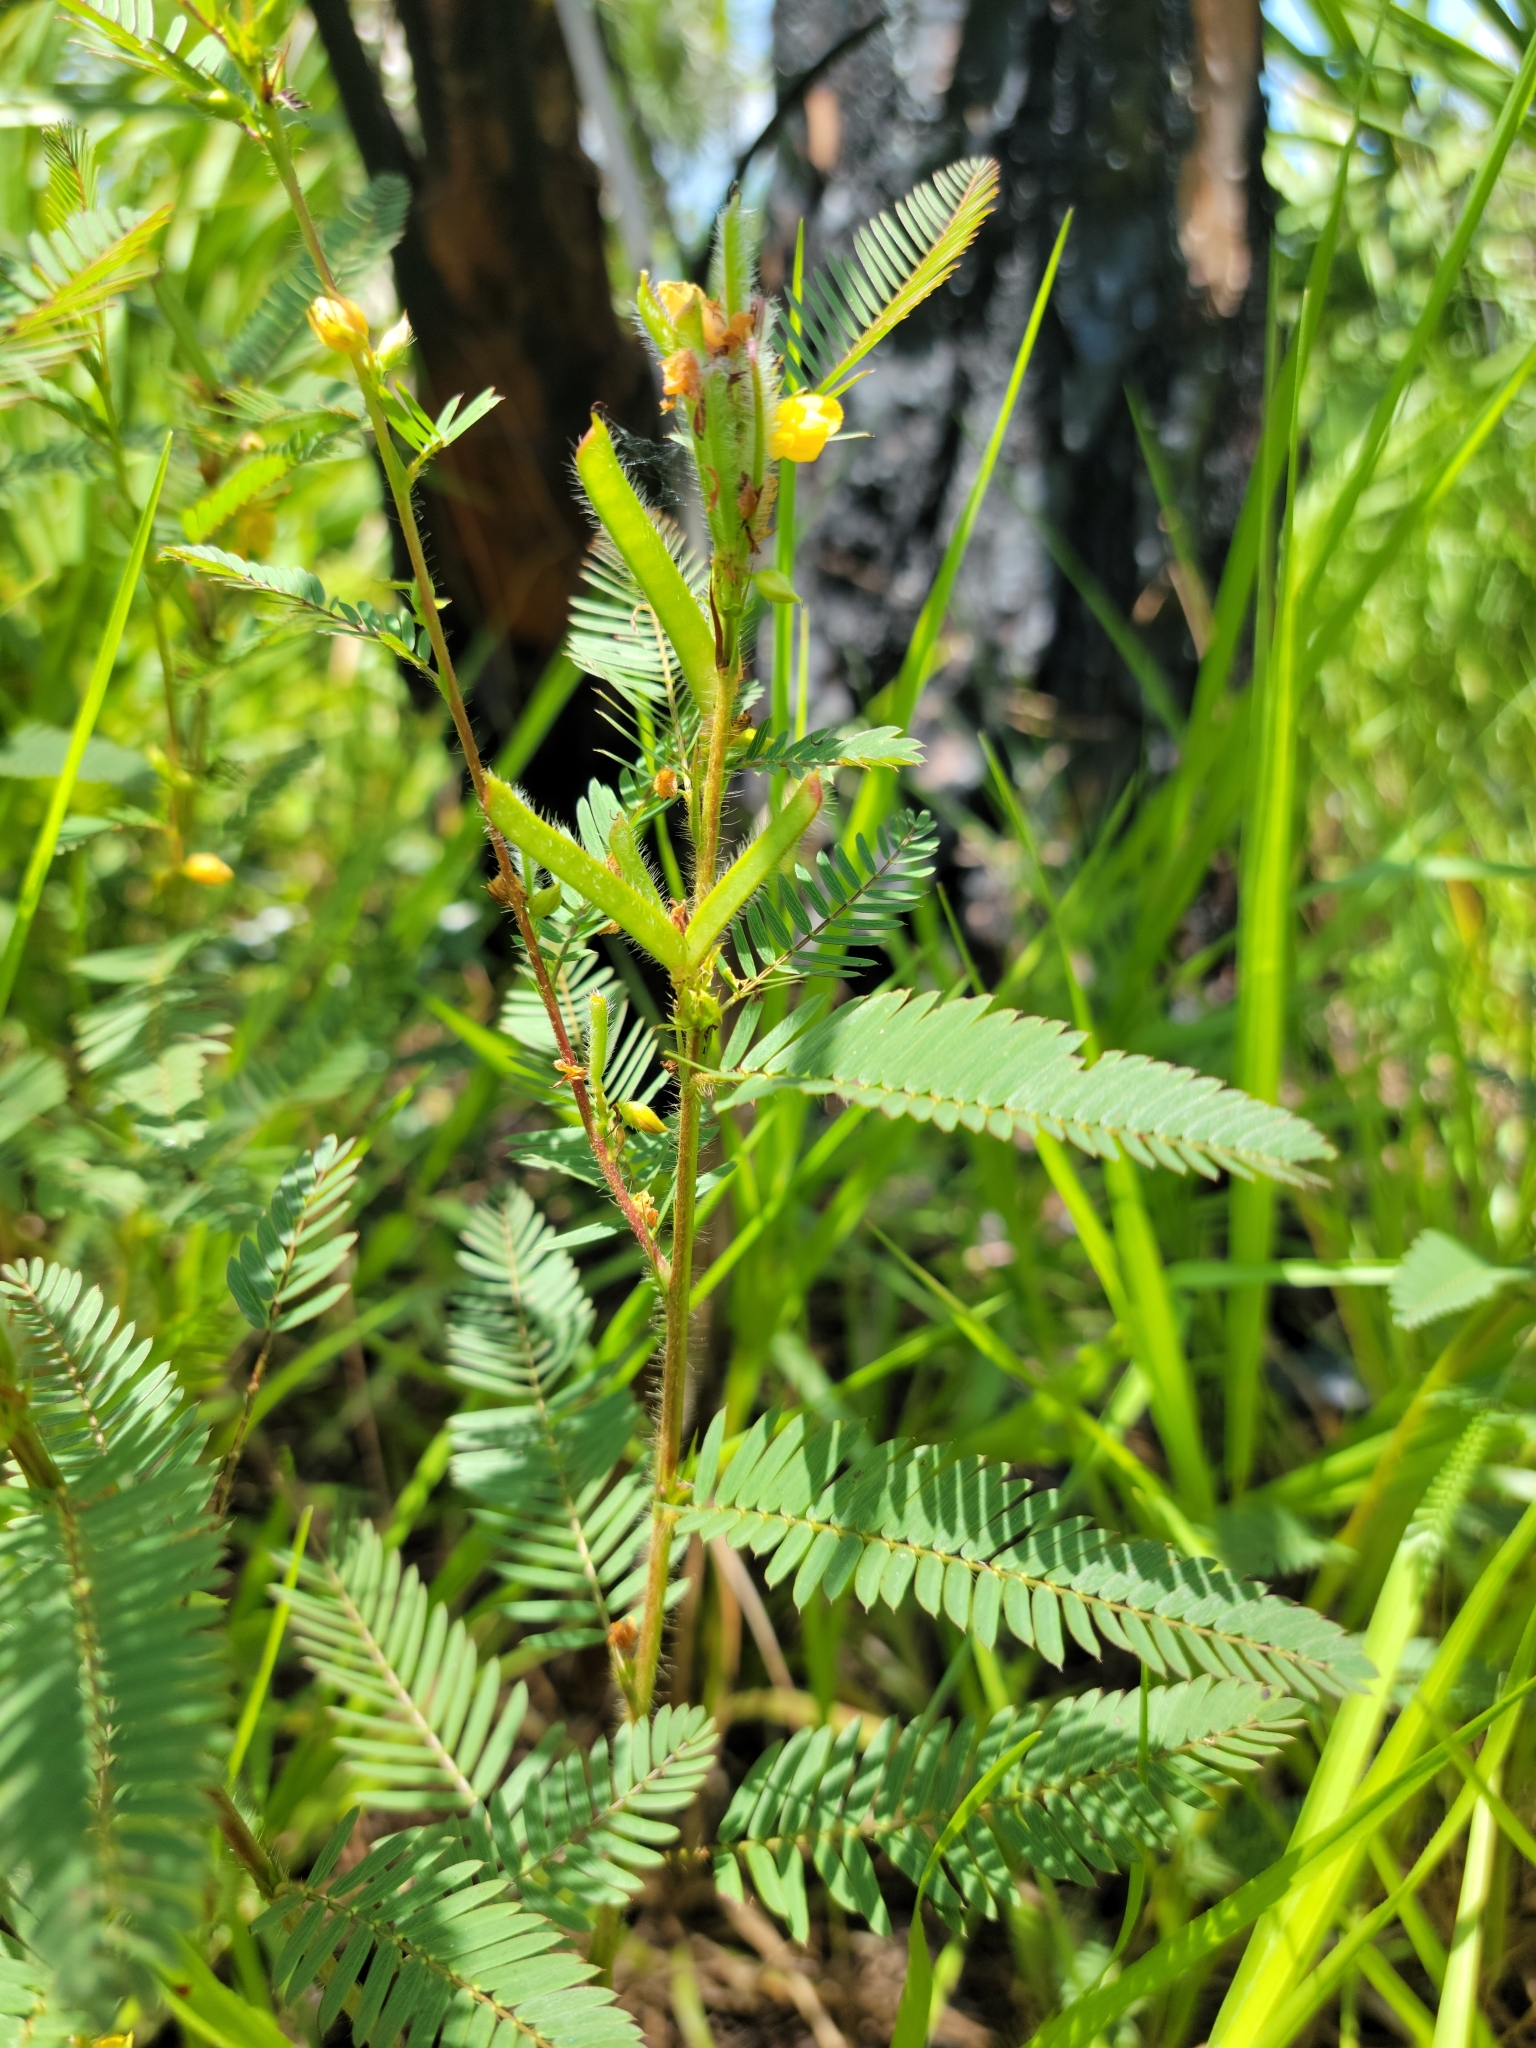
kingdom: Plantae
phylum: Tracheophyta
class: Magnoliopsida
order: Fabales
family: Fabaceae
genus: Chamaecrista
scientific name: Chamaecrista nictitans
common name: Sensitive cassia
